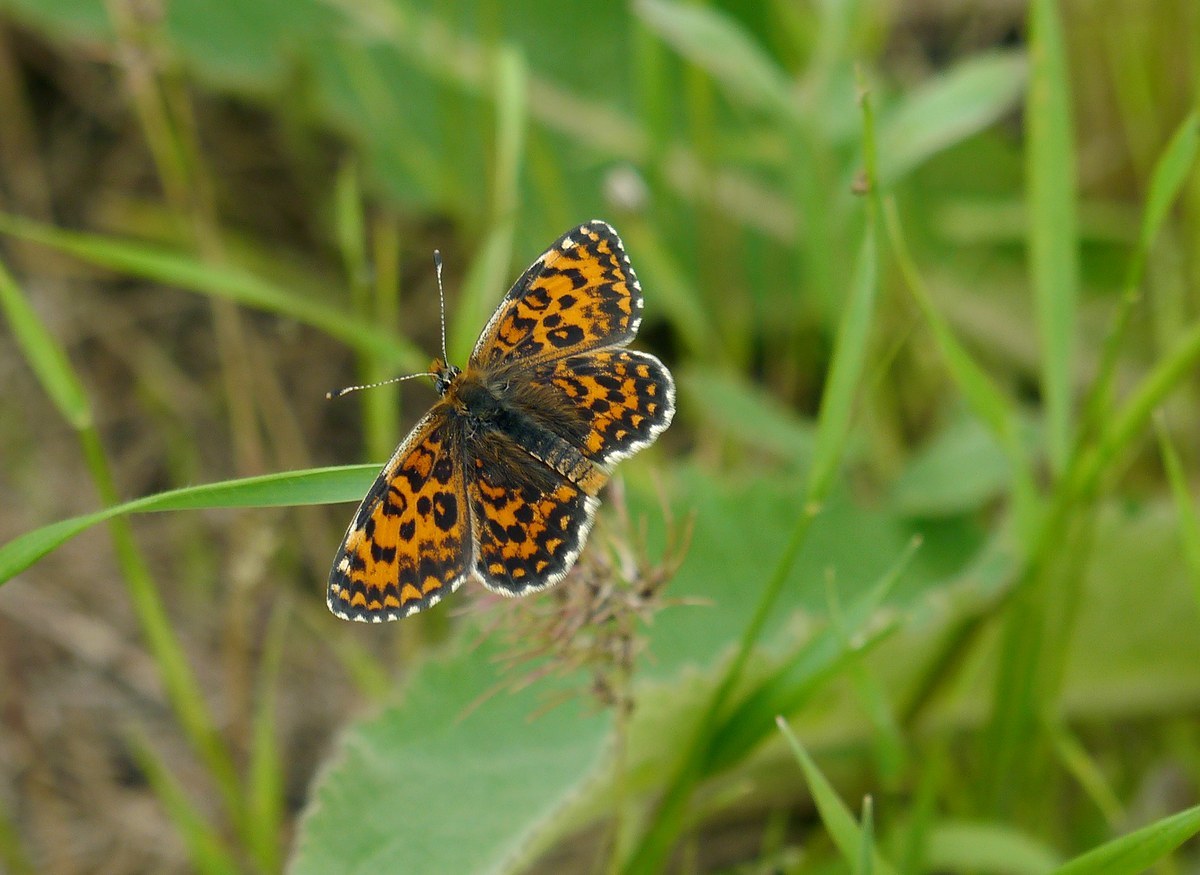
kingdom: Animalia
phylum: Arthropoda
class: Insecta
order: Lepidoptera
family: Nymphalidae
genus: Melitaea
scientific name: Melitaea trivia
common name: Lesser spotted fritillary
